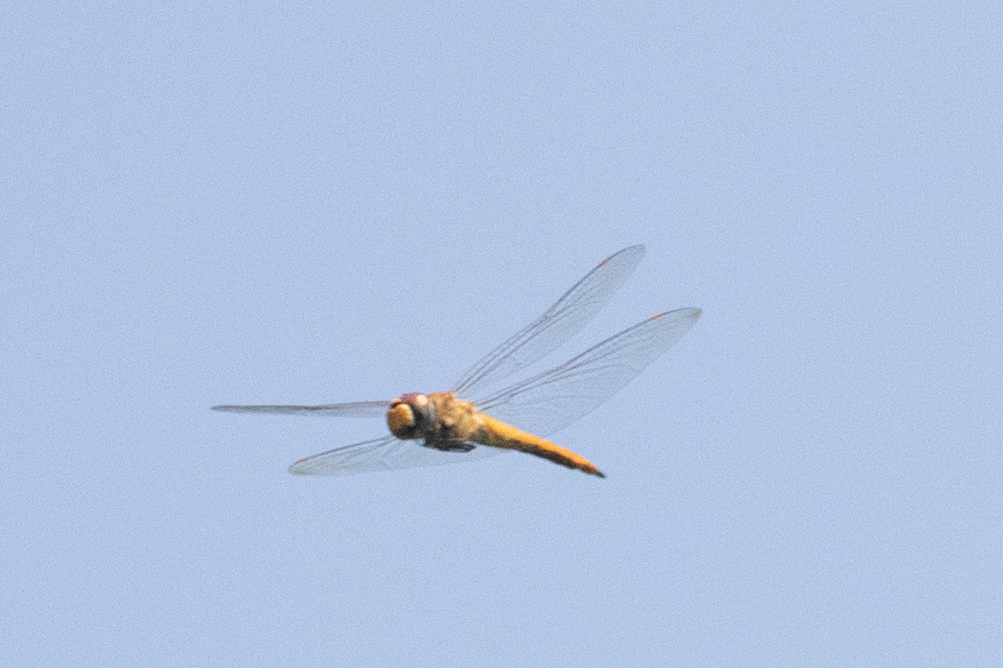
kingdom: Animalia
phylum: Arthropoda
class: Insecta
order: Odonata
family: Libellulidae
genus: Pantala
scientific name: Pantala flavescens
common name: Wandering glider
